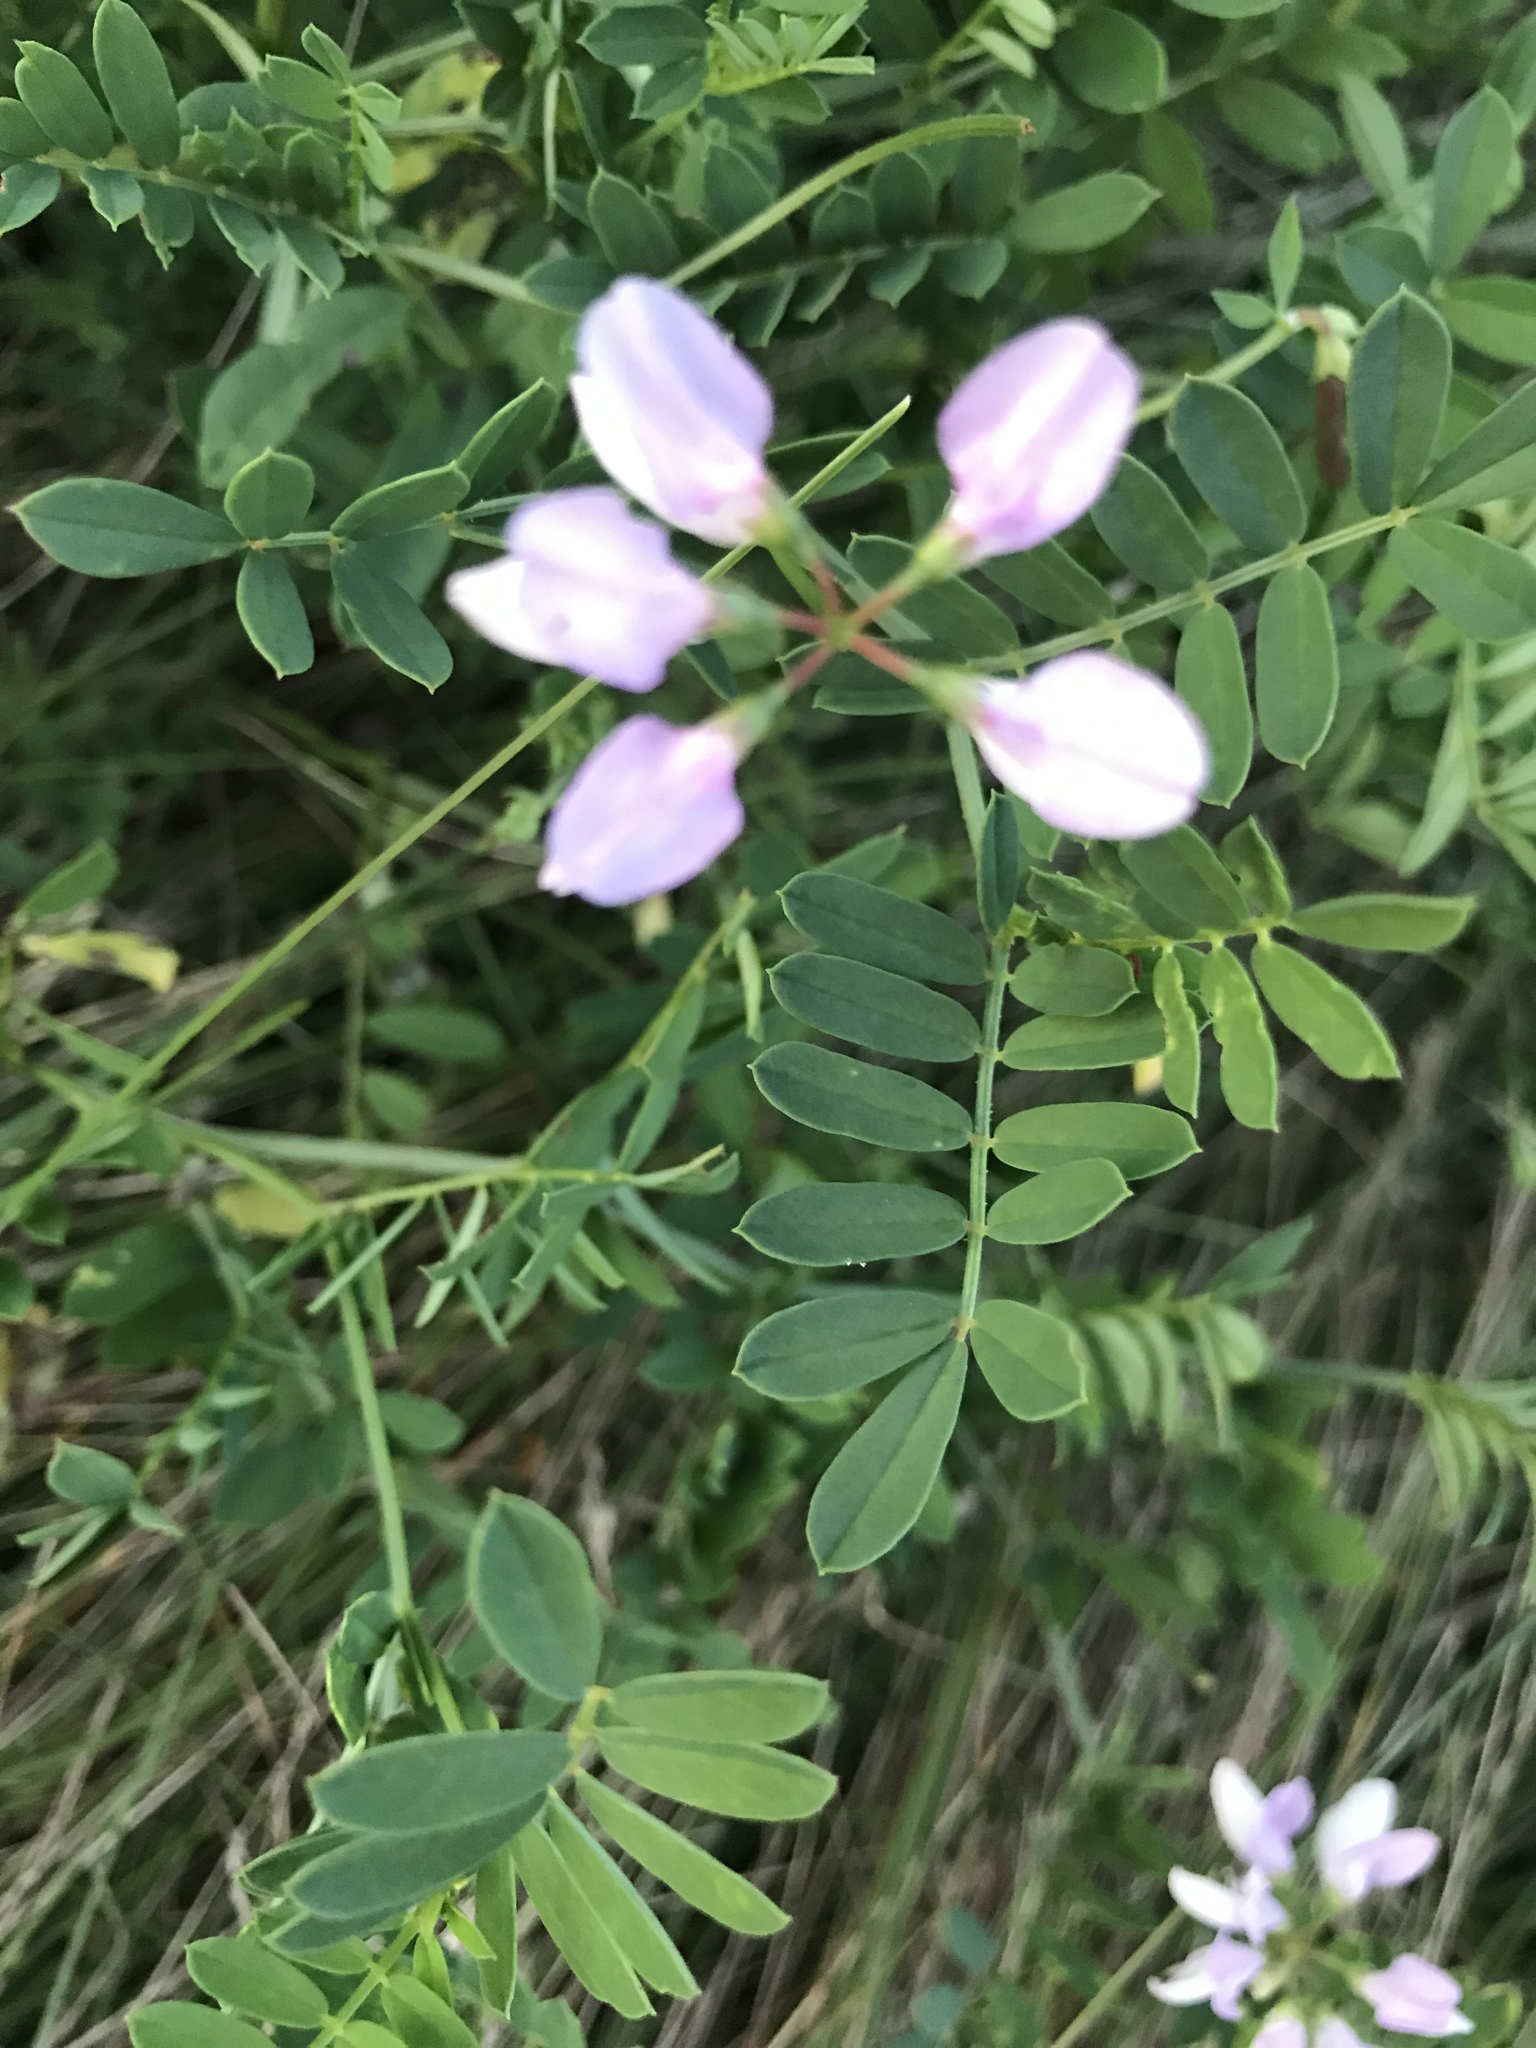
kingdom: Plantae
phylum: Tracheophyta
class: Magnoliopsida
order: Fabales
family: Fabaceae
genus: Coronilla
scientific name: Coronilla varia
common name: Crownvetch
